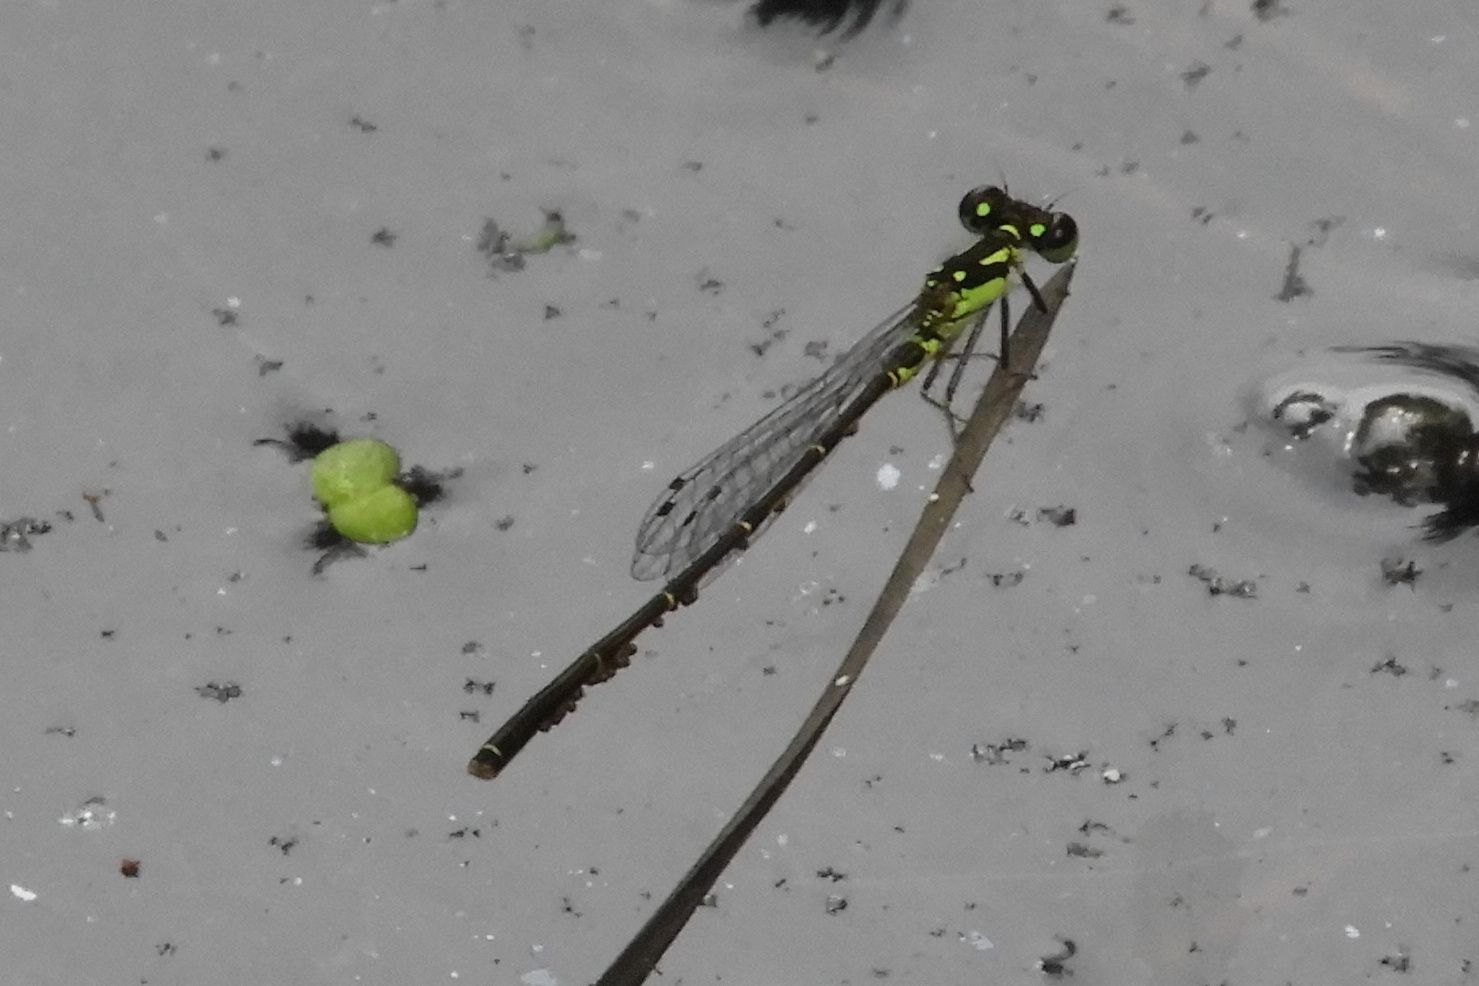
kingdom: Animalia
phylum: Arthropoda
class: Insecta
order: Odonata
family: Coenagrionidae
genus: Ischnura
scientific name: Ischnura posita
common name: Fragile forktail
